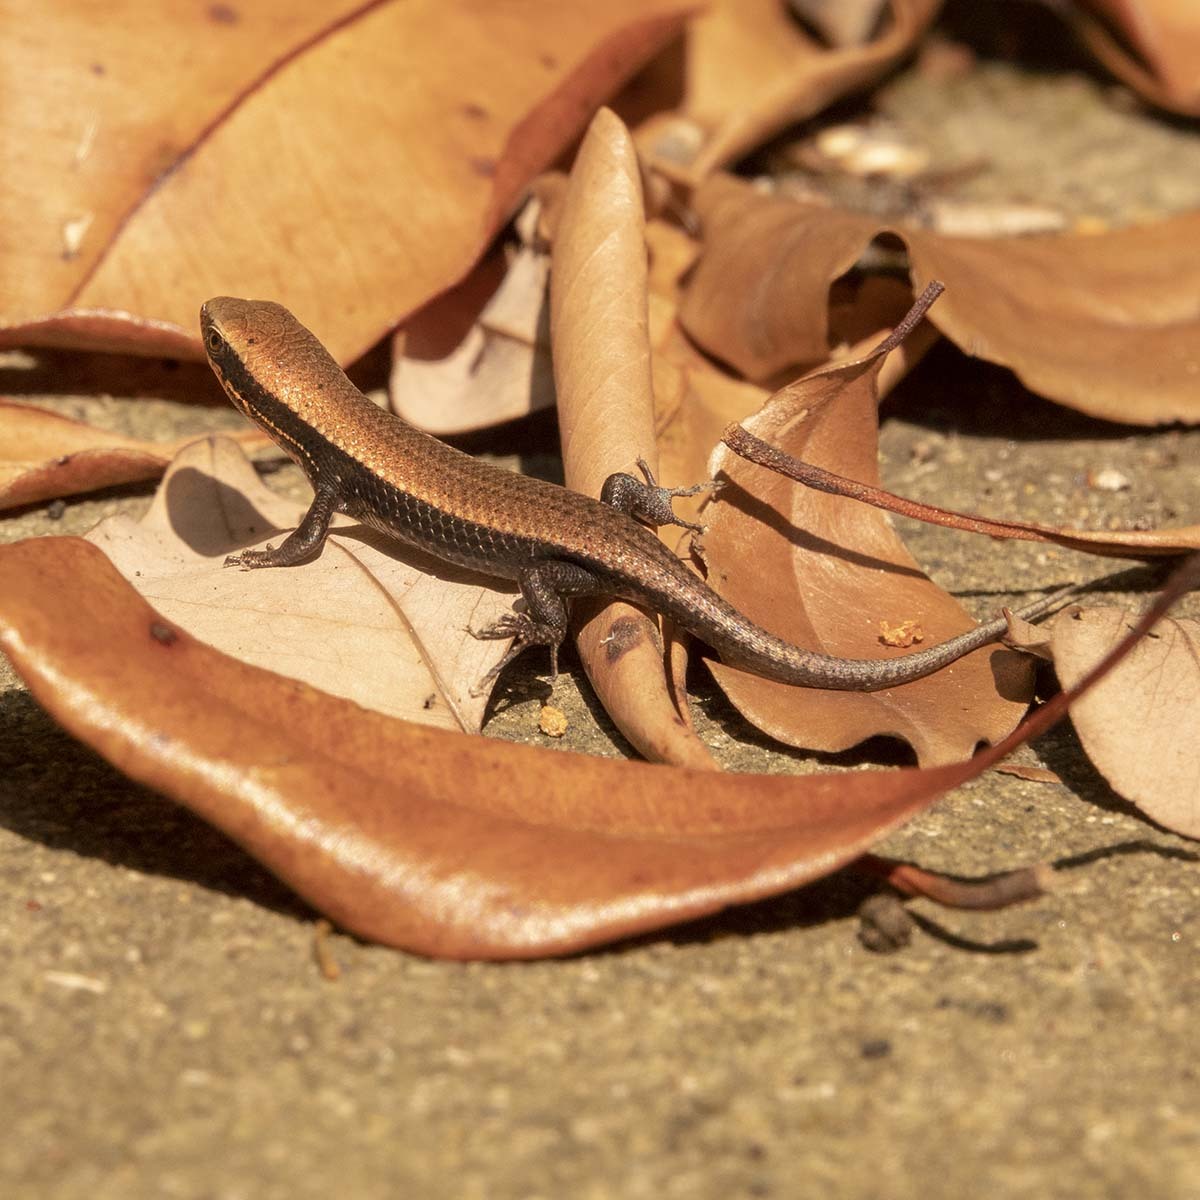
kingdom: Animalia
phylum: Chordata
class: Squamata
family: Scincidae
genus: Eutropis
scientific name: Eutropis macularia
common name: Bronze mabuya
